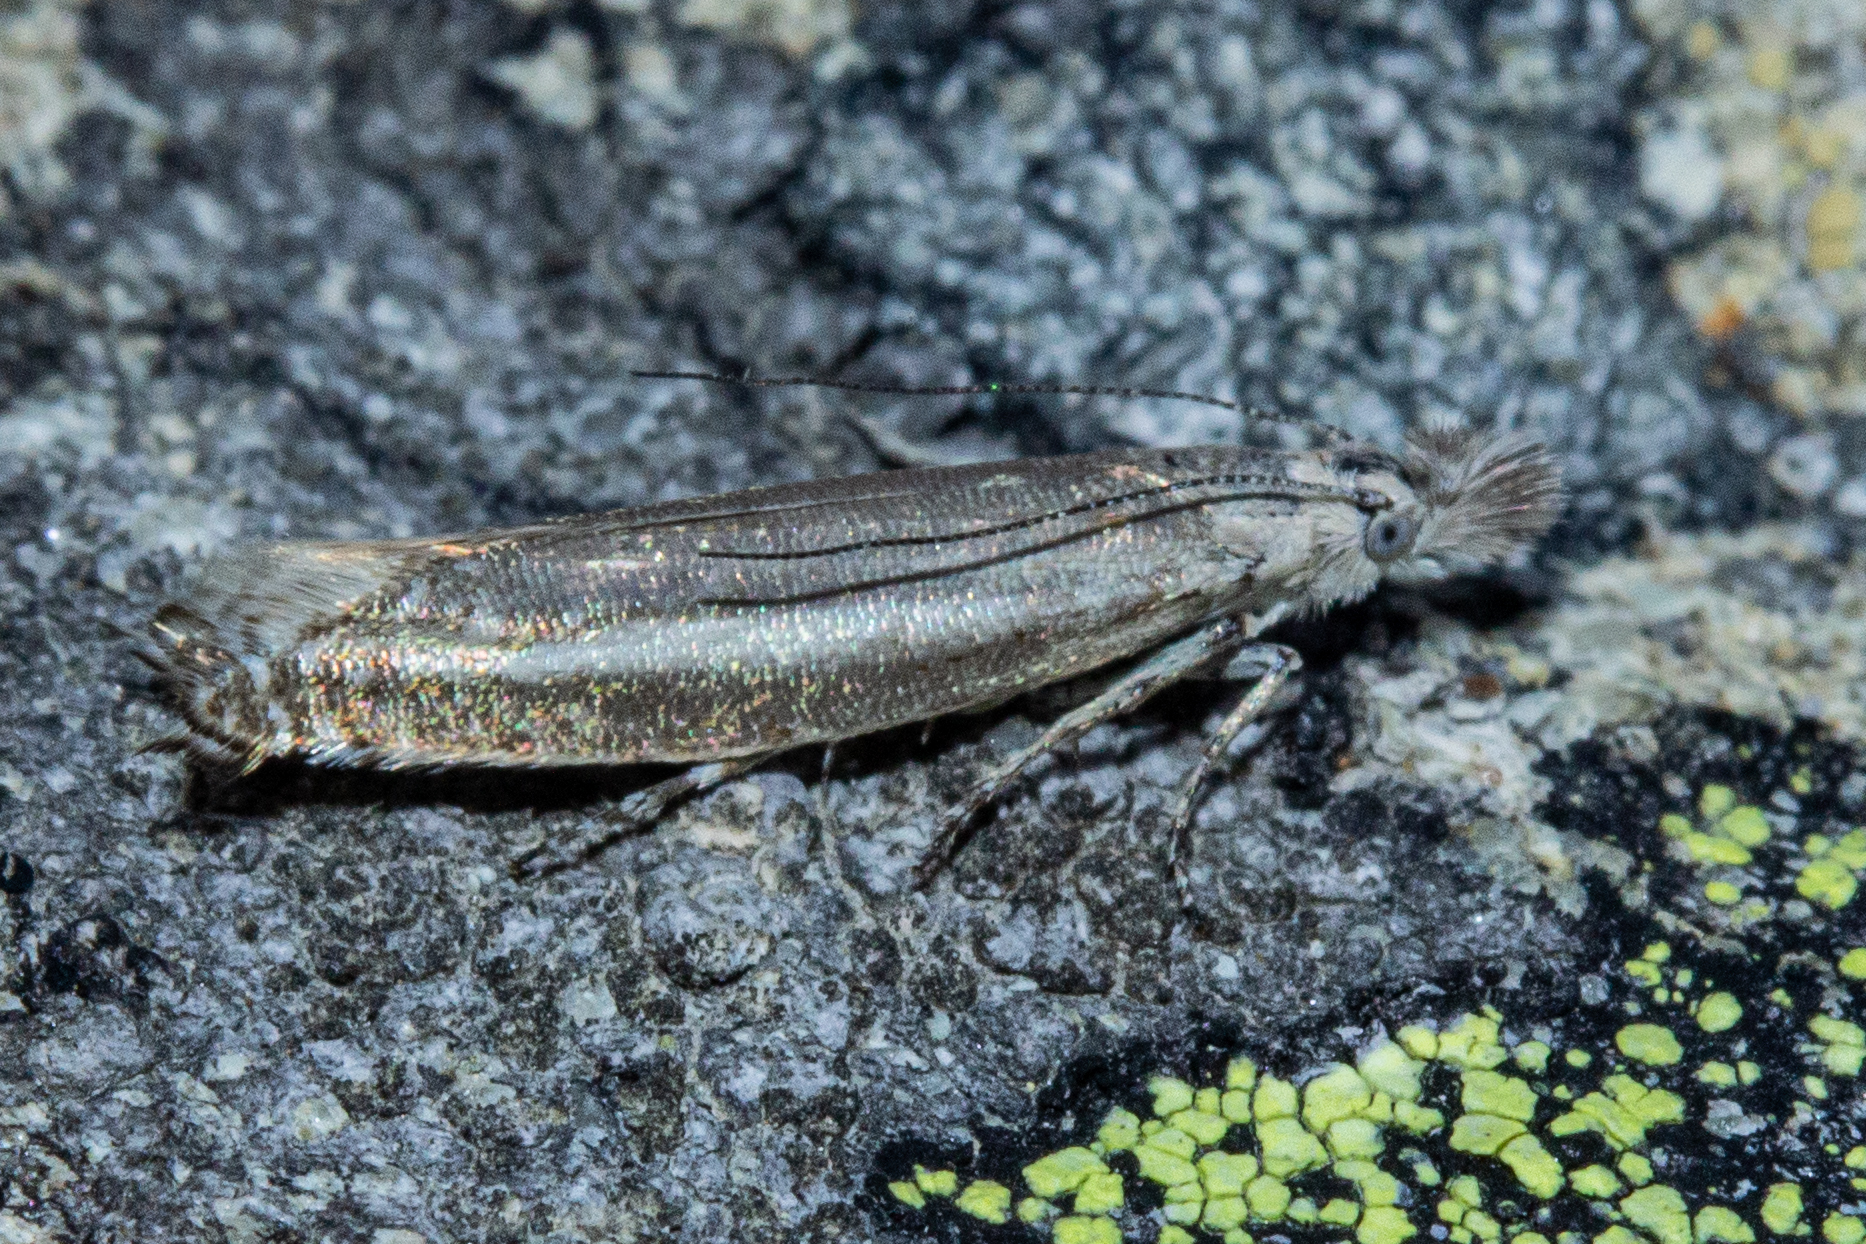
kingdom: Animalia
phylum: Arthropoda
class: Insecta
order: Lepidoptera
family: Glyphipterigidae
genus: Glyphipterix
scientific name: Glyphipterix barbata
